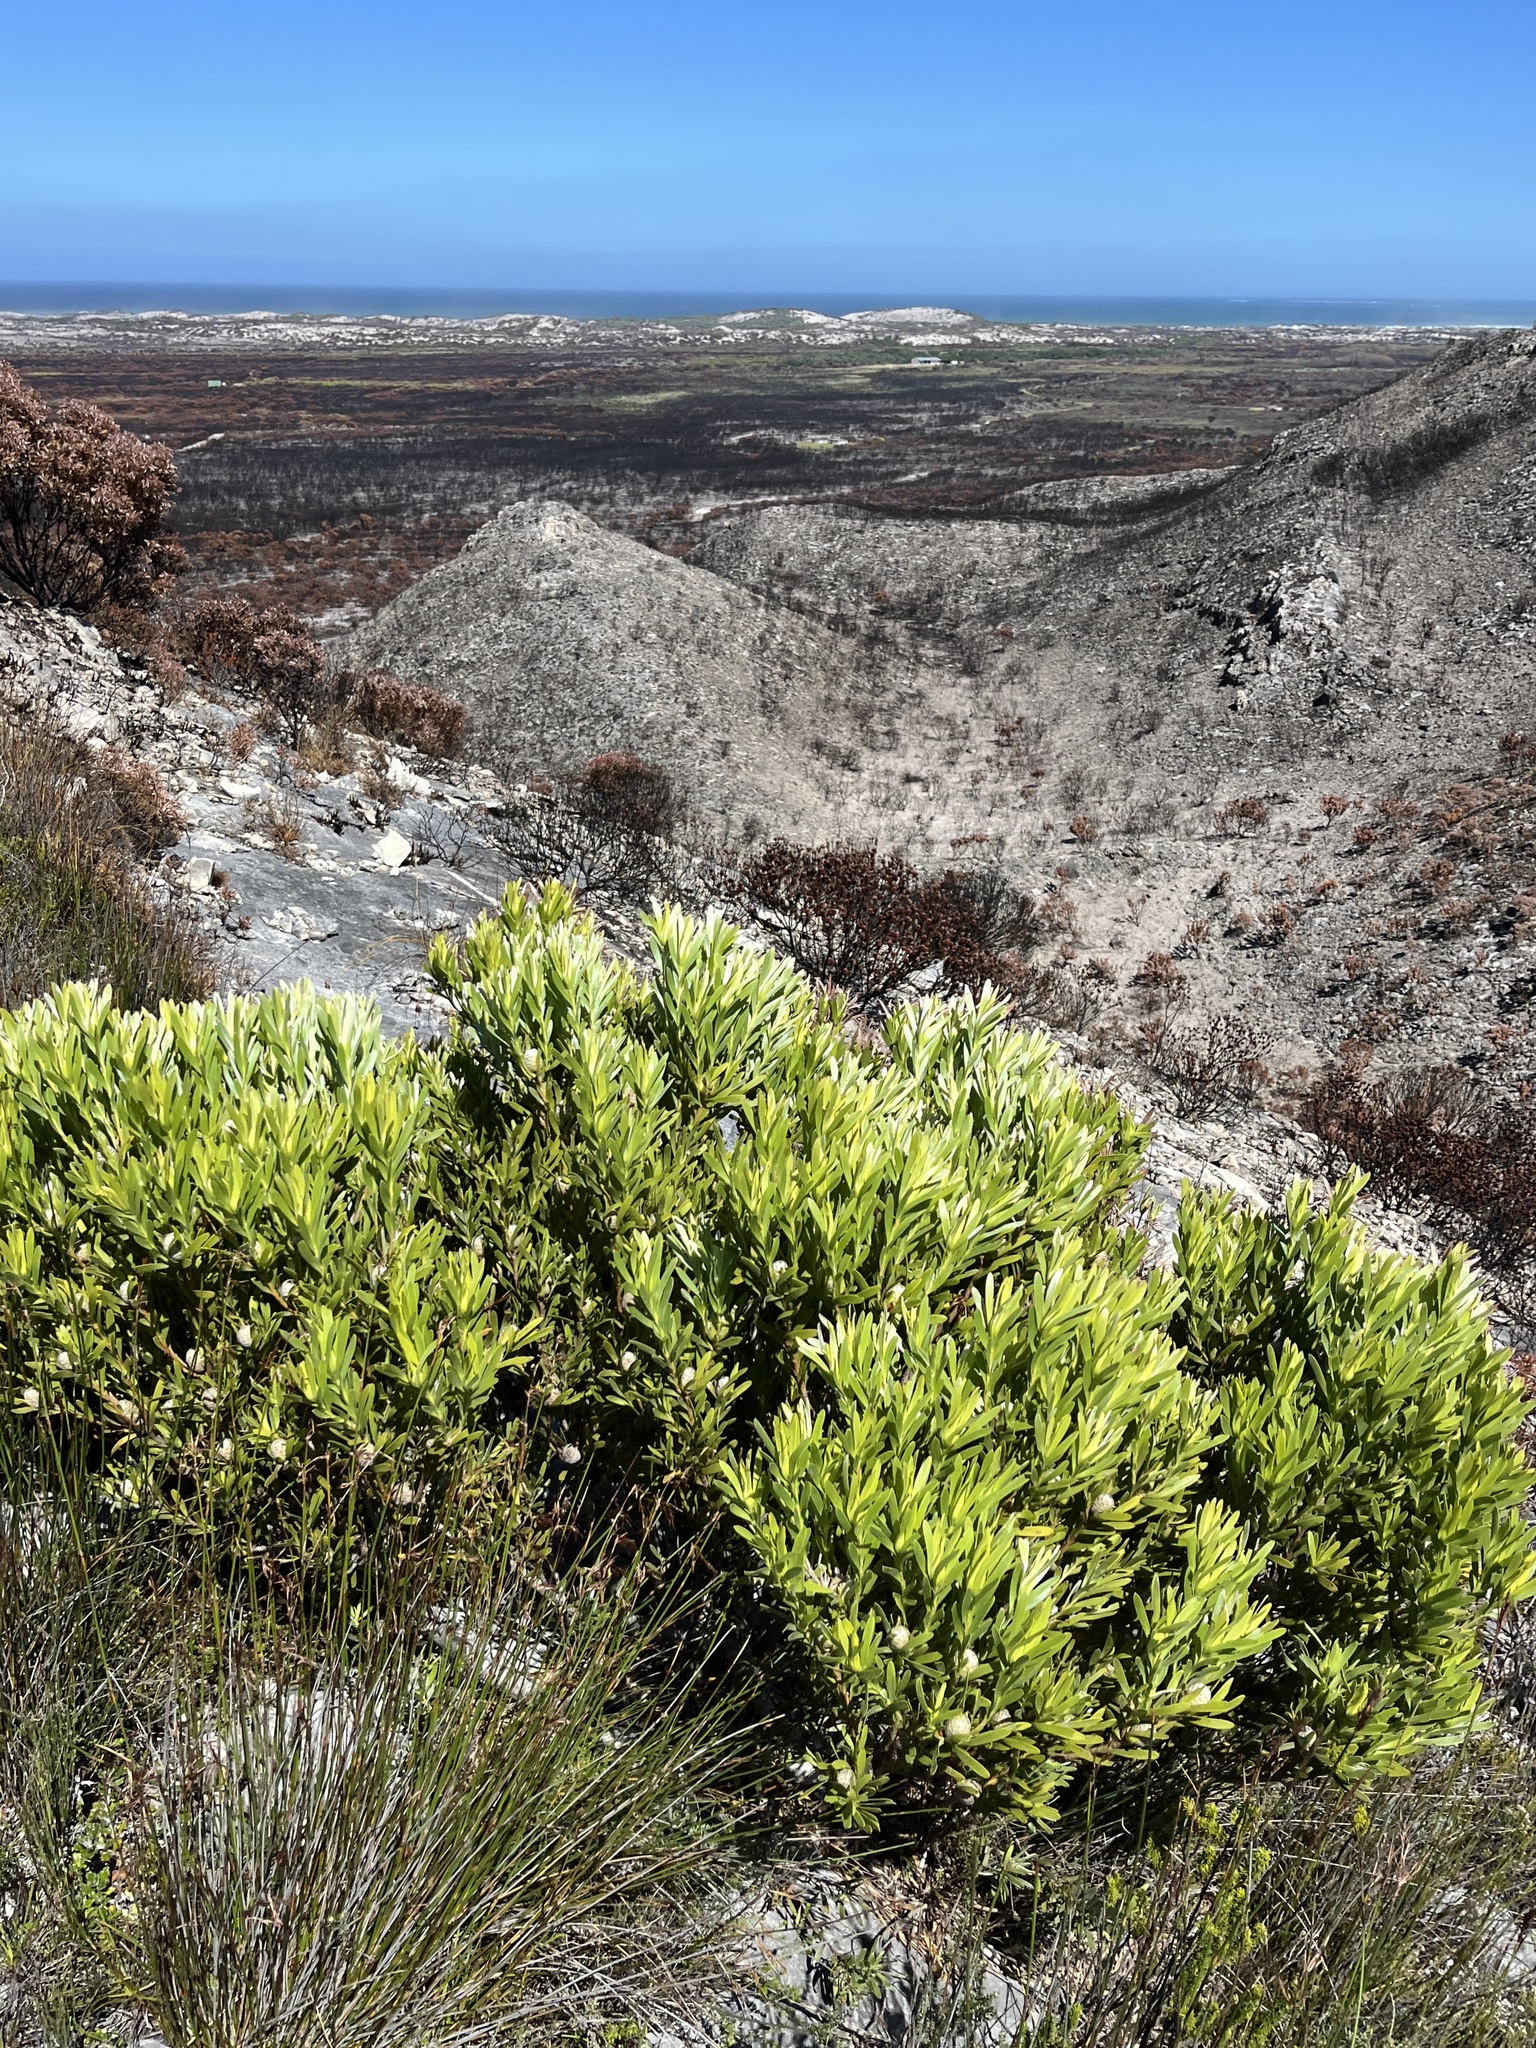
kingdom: Plantae
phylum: Tracheophyta
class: Magnoliopsida
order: Proteales
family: Proteaceae
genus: Leucadendron
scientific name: Leucadendron meridianum
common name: Limestone conebush
